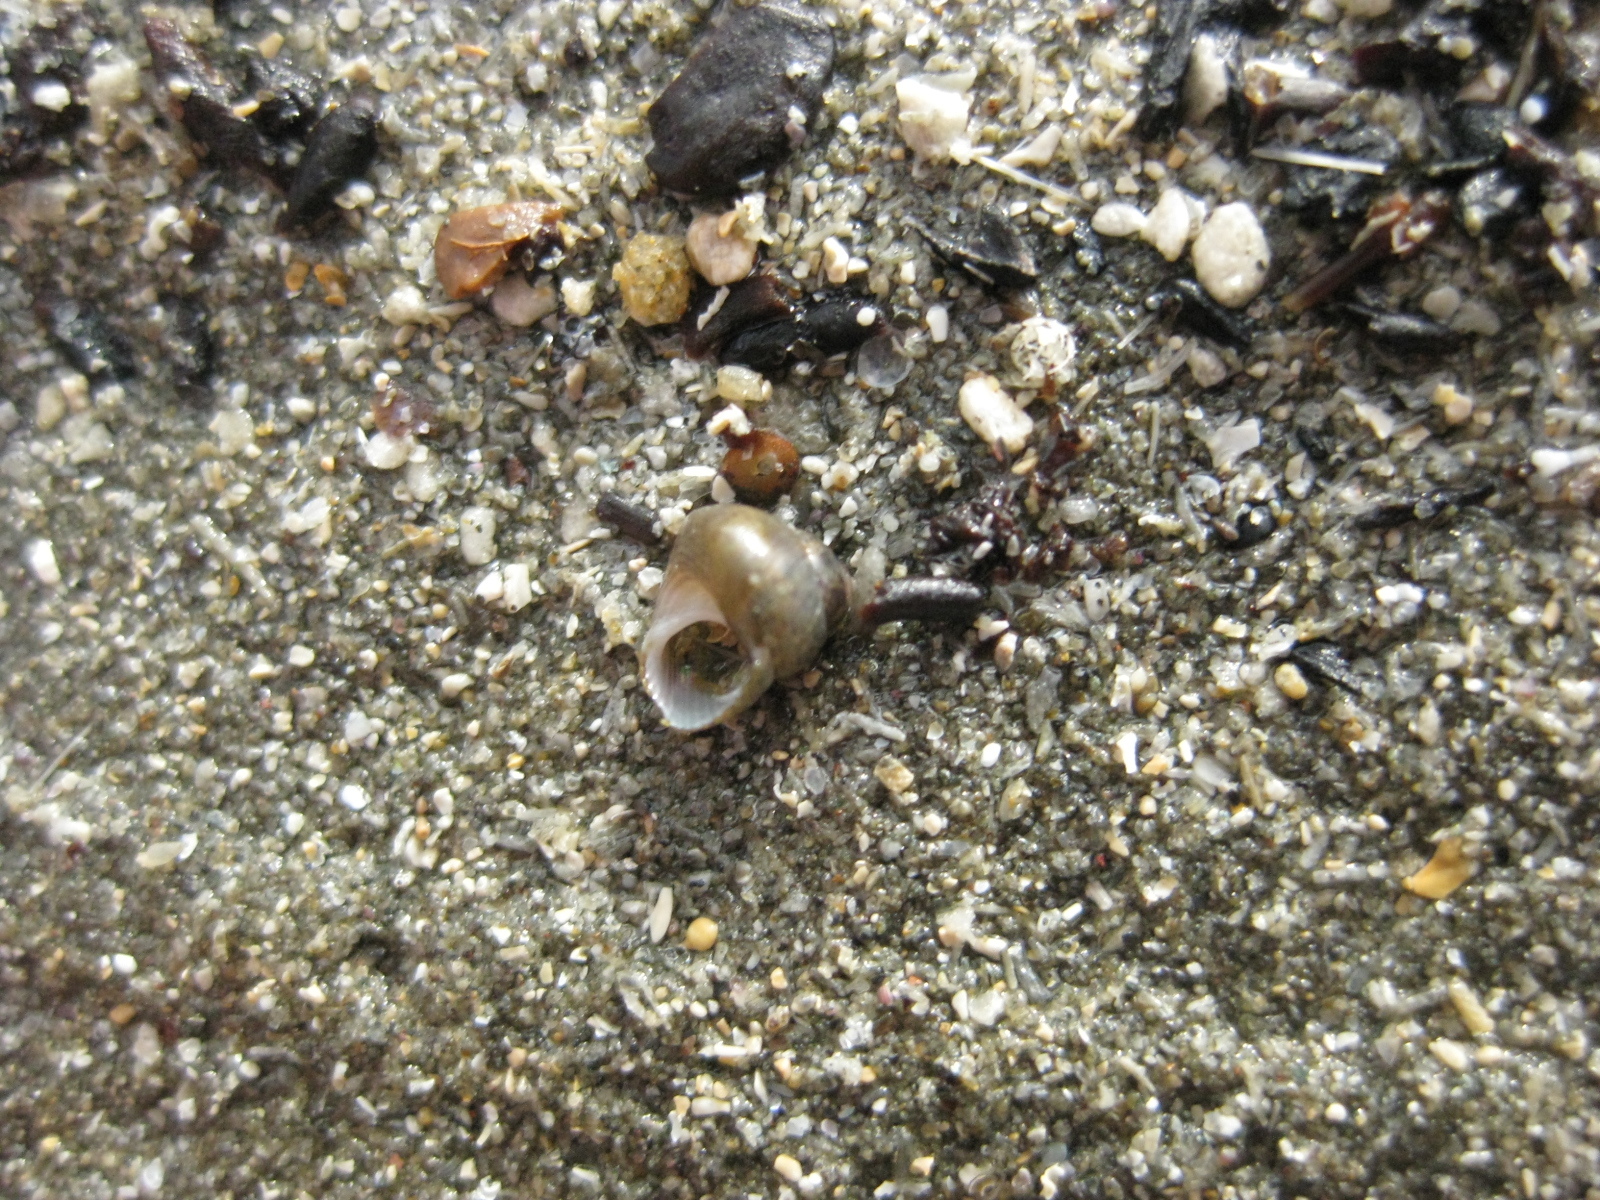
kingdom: Animalia
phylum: Mollusca
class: Gastropoda
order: Trochida
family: Trochidae
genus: Micrelenchus
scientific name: Micrelenchus tessellatus
